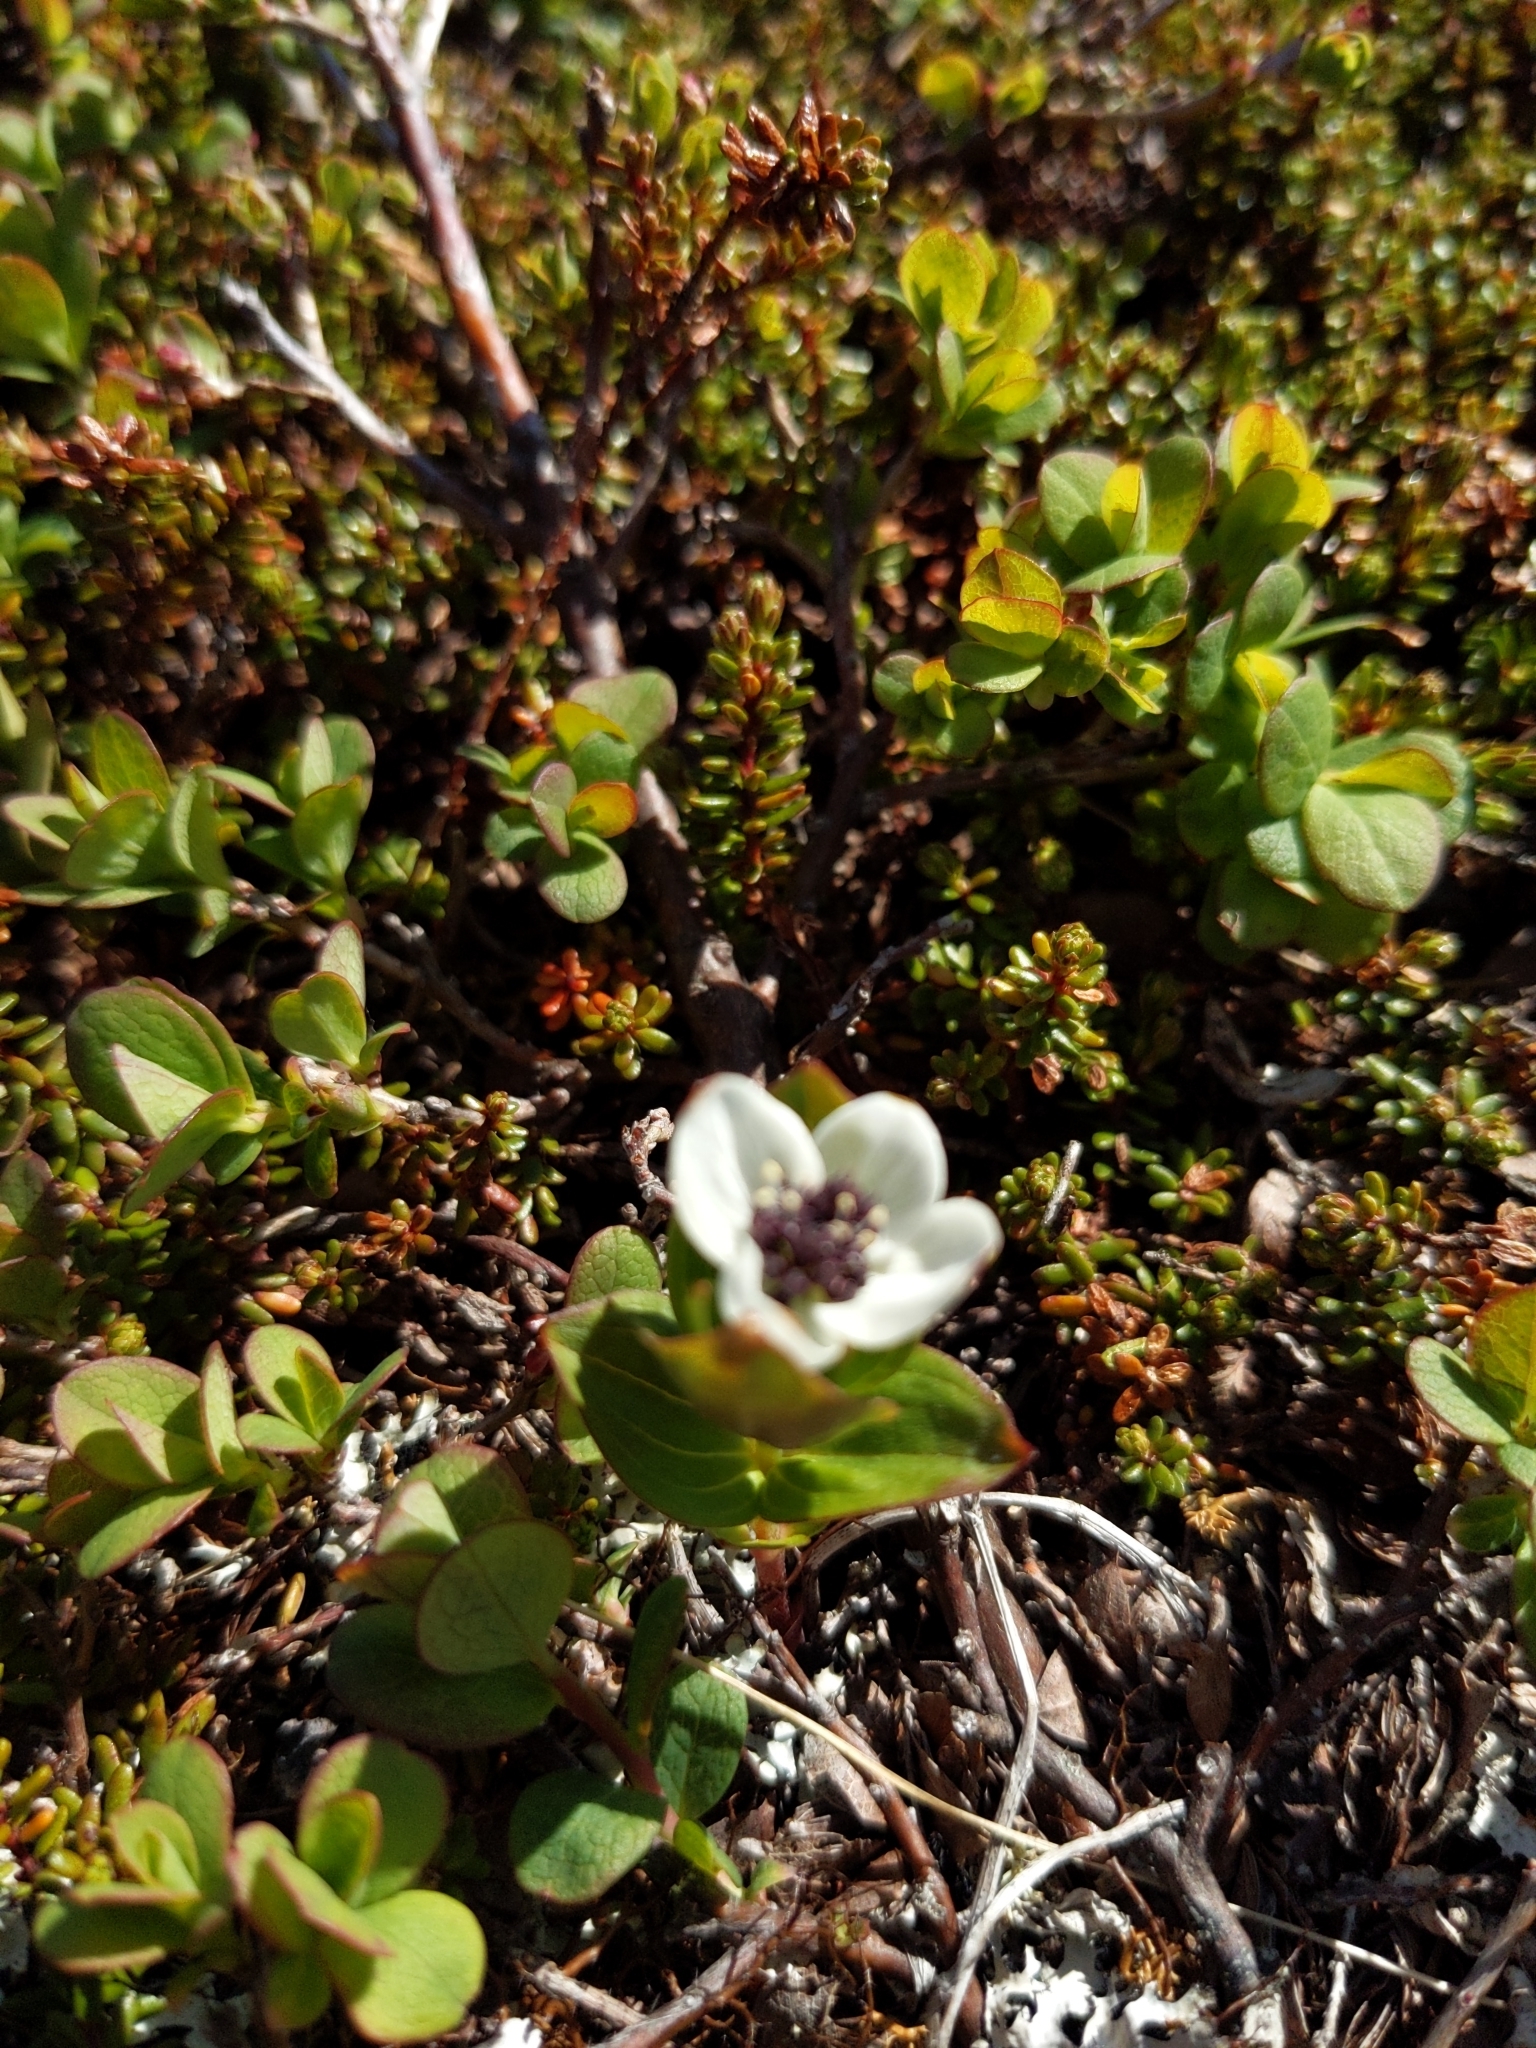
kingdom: Plantae
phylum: Tracheophyta
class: Magnoliopsida
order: Cornales
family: Cornaceae
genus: Cornus
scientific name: Cornus suecica
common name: Dwarf cornel
